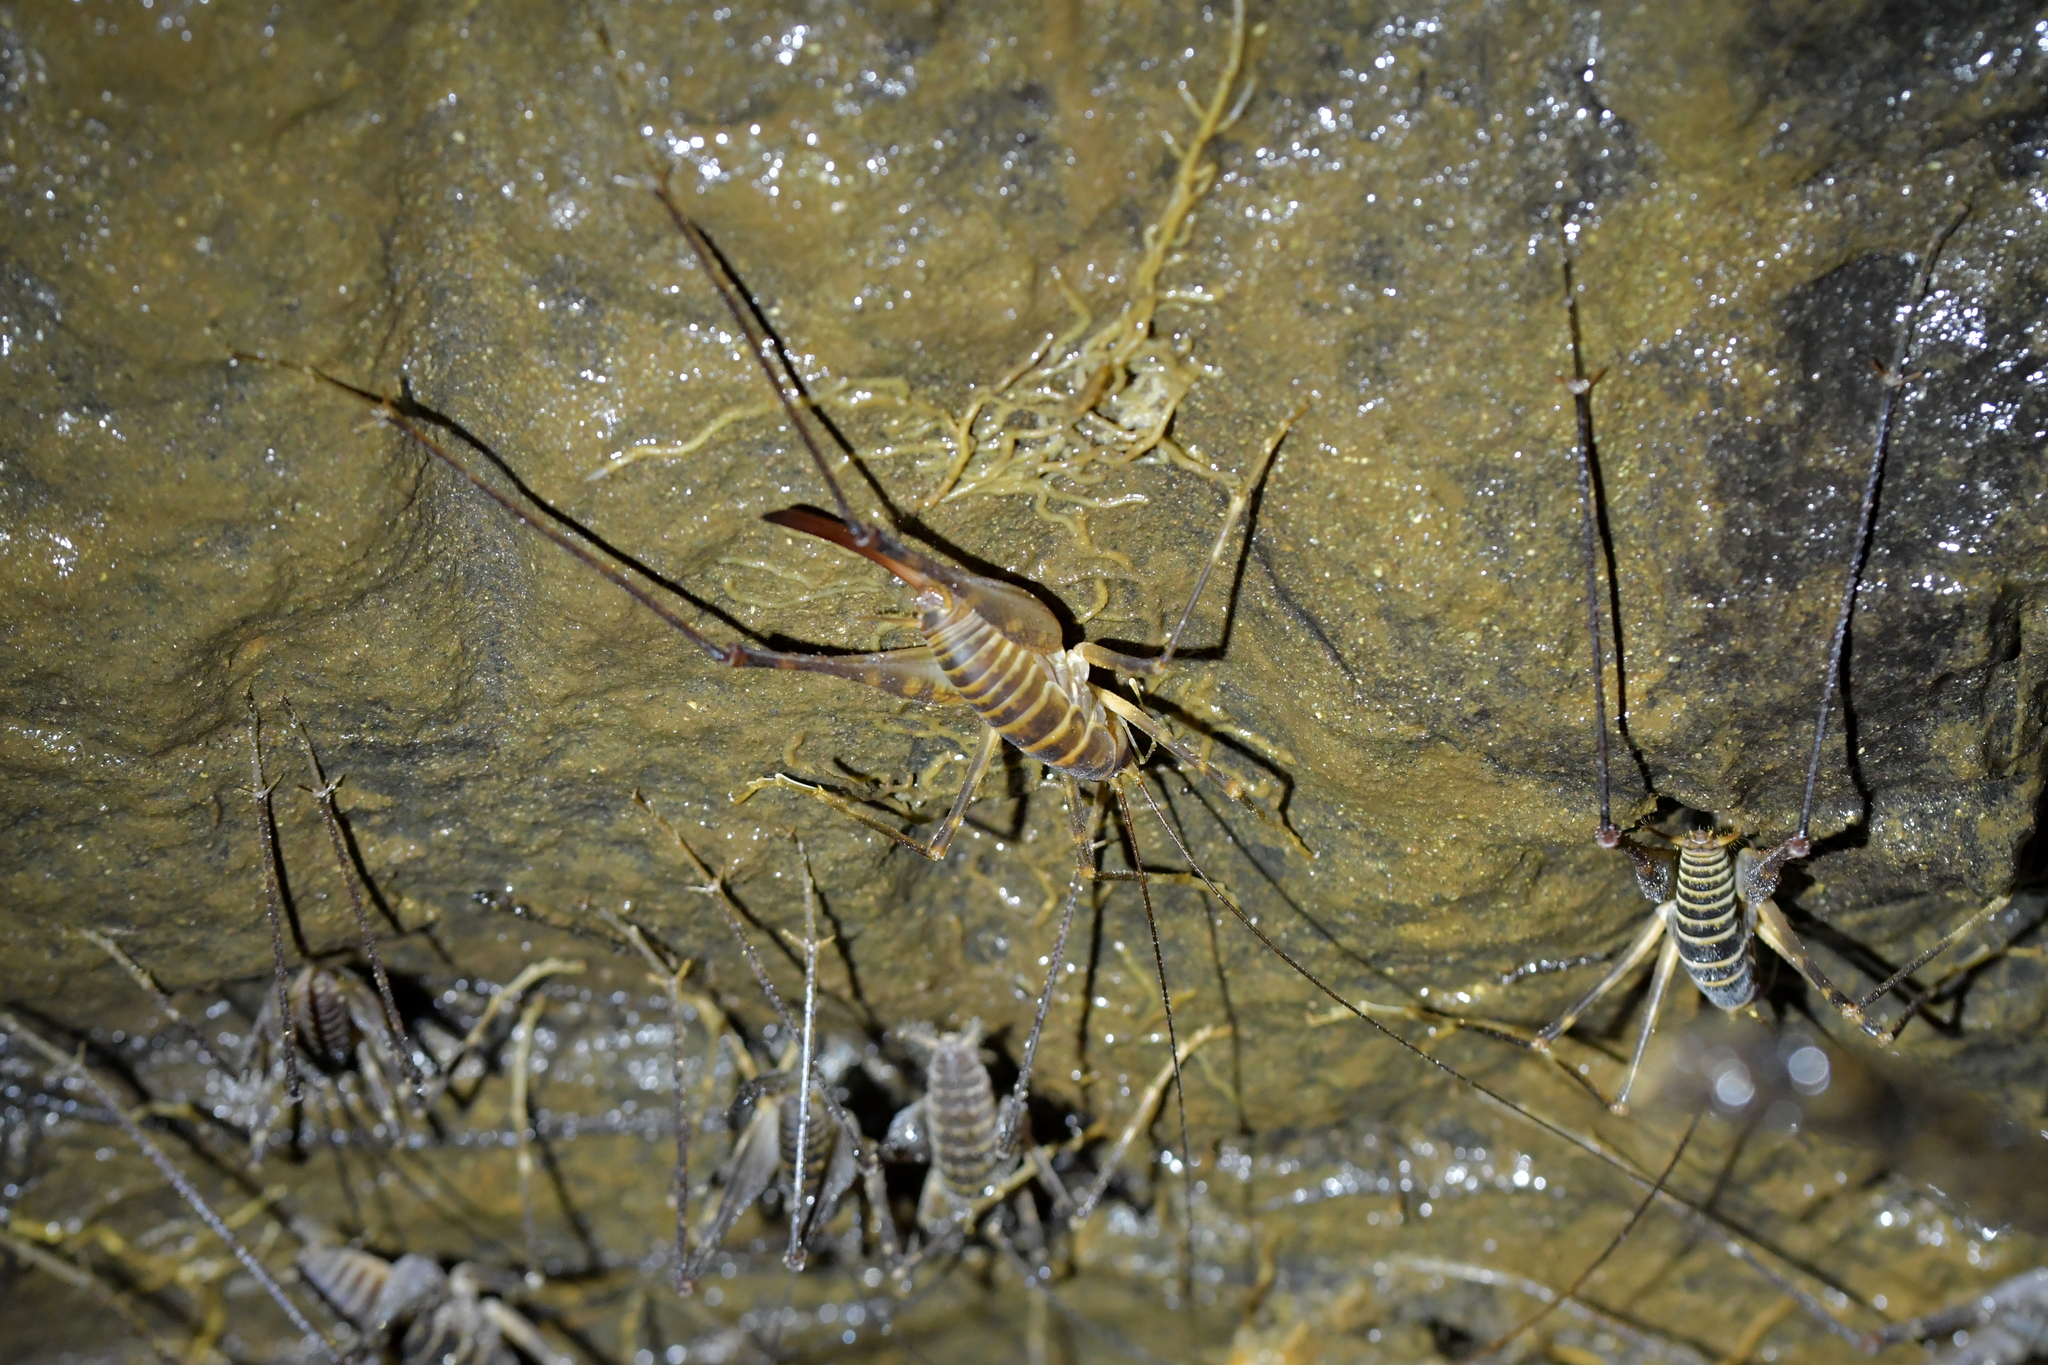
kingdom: Animalia
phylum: Arthropoda
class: Insecta
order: Orthoptera
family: Rhaphidophoridae
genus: Pachyrhamma
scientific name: Pachyrhamma acanthocera
